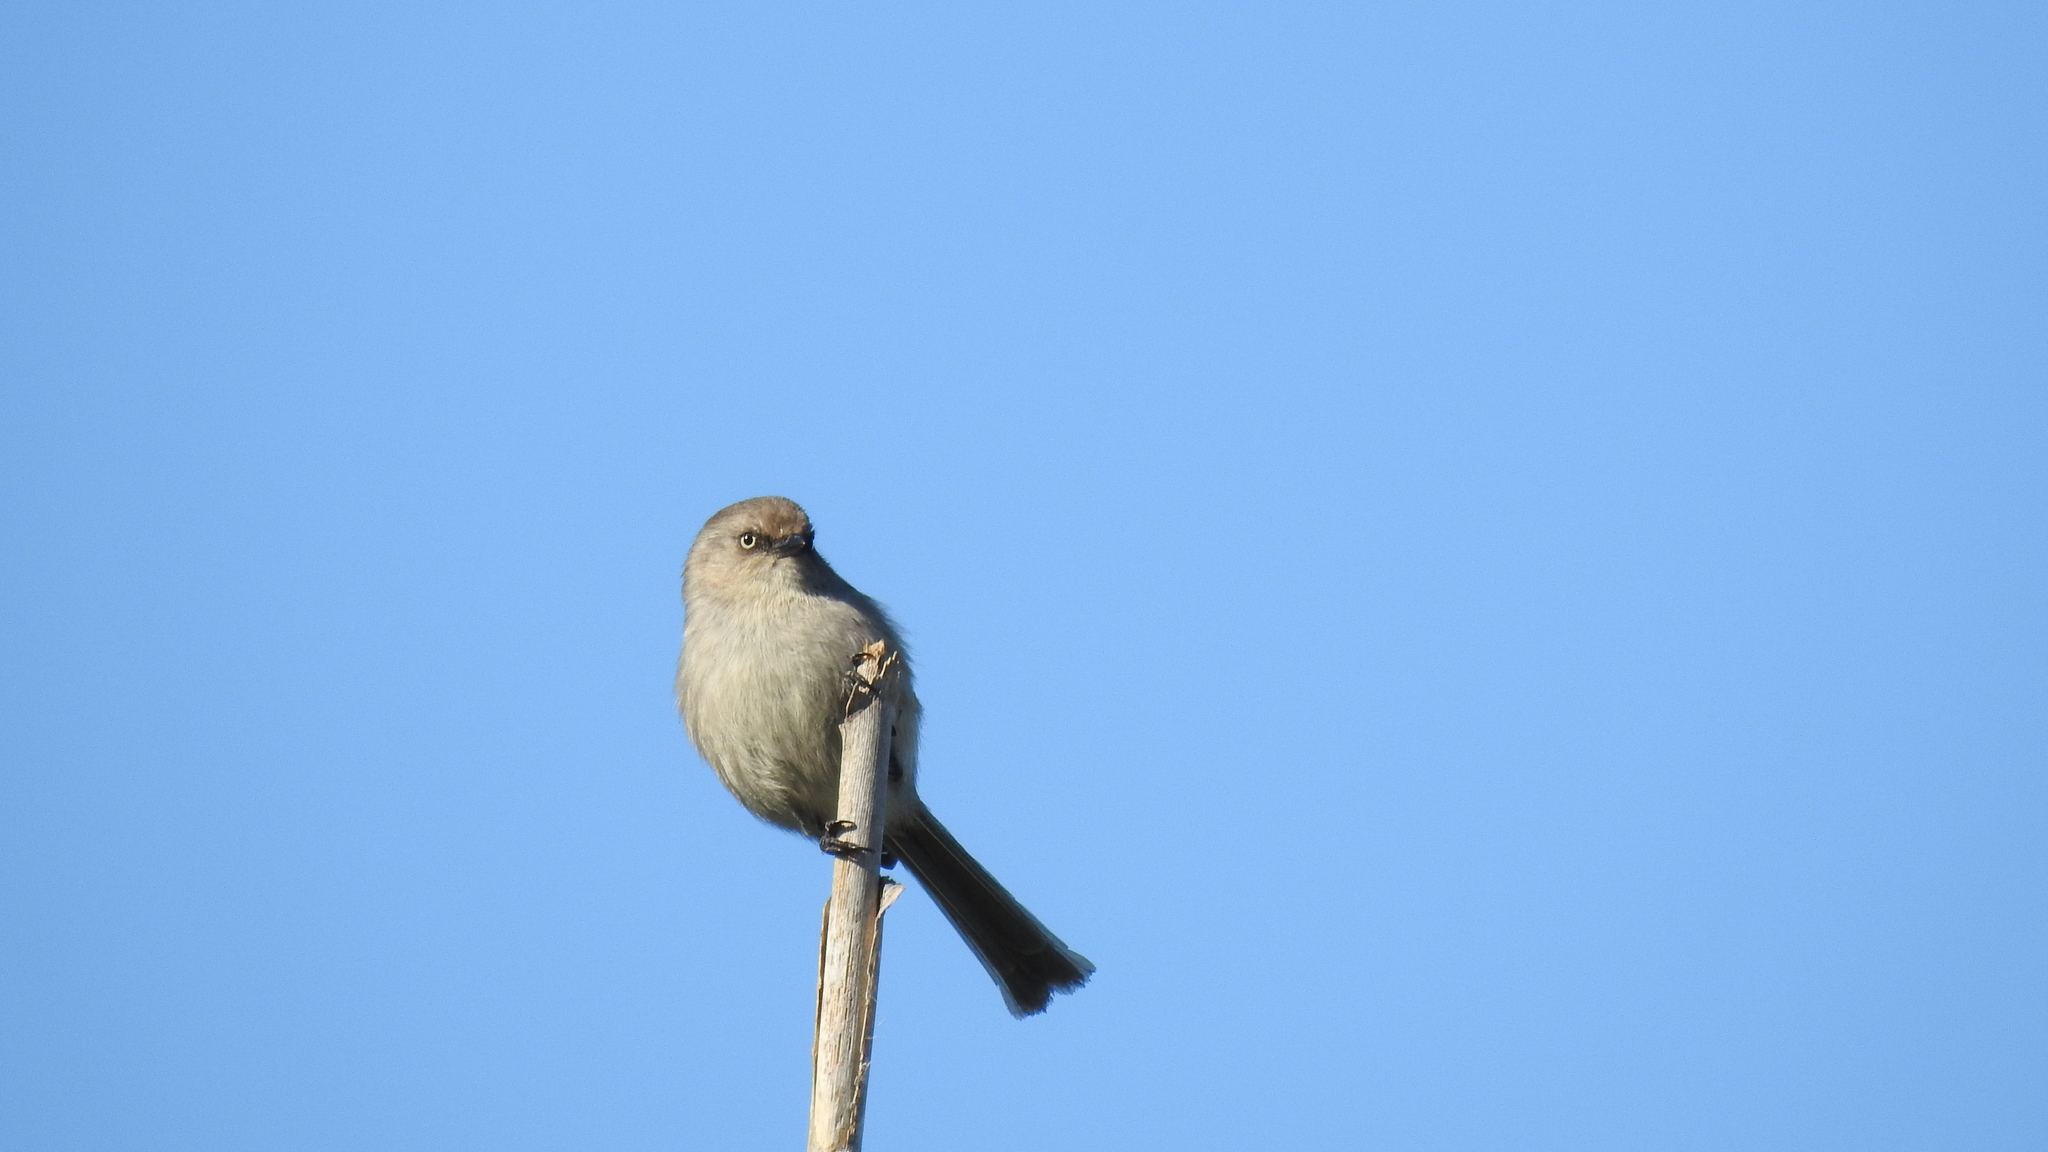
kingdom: Animalia
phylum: Chordata
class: Aves
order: Passeriformes
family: Aegithalidae
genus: Psaltriparus
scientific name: Psaltriparus minimus
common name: American bushtit
